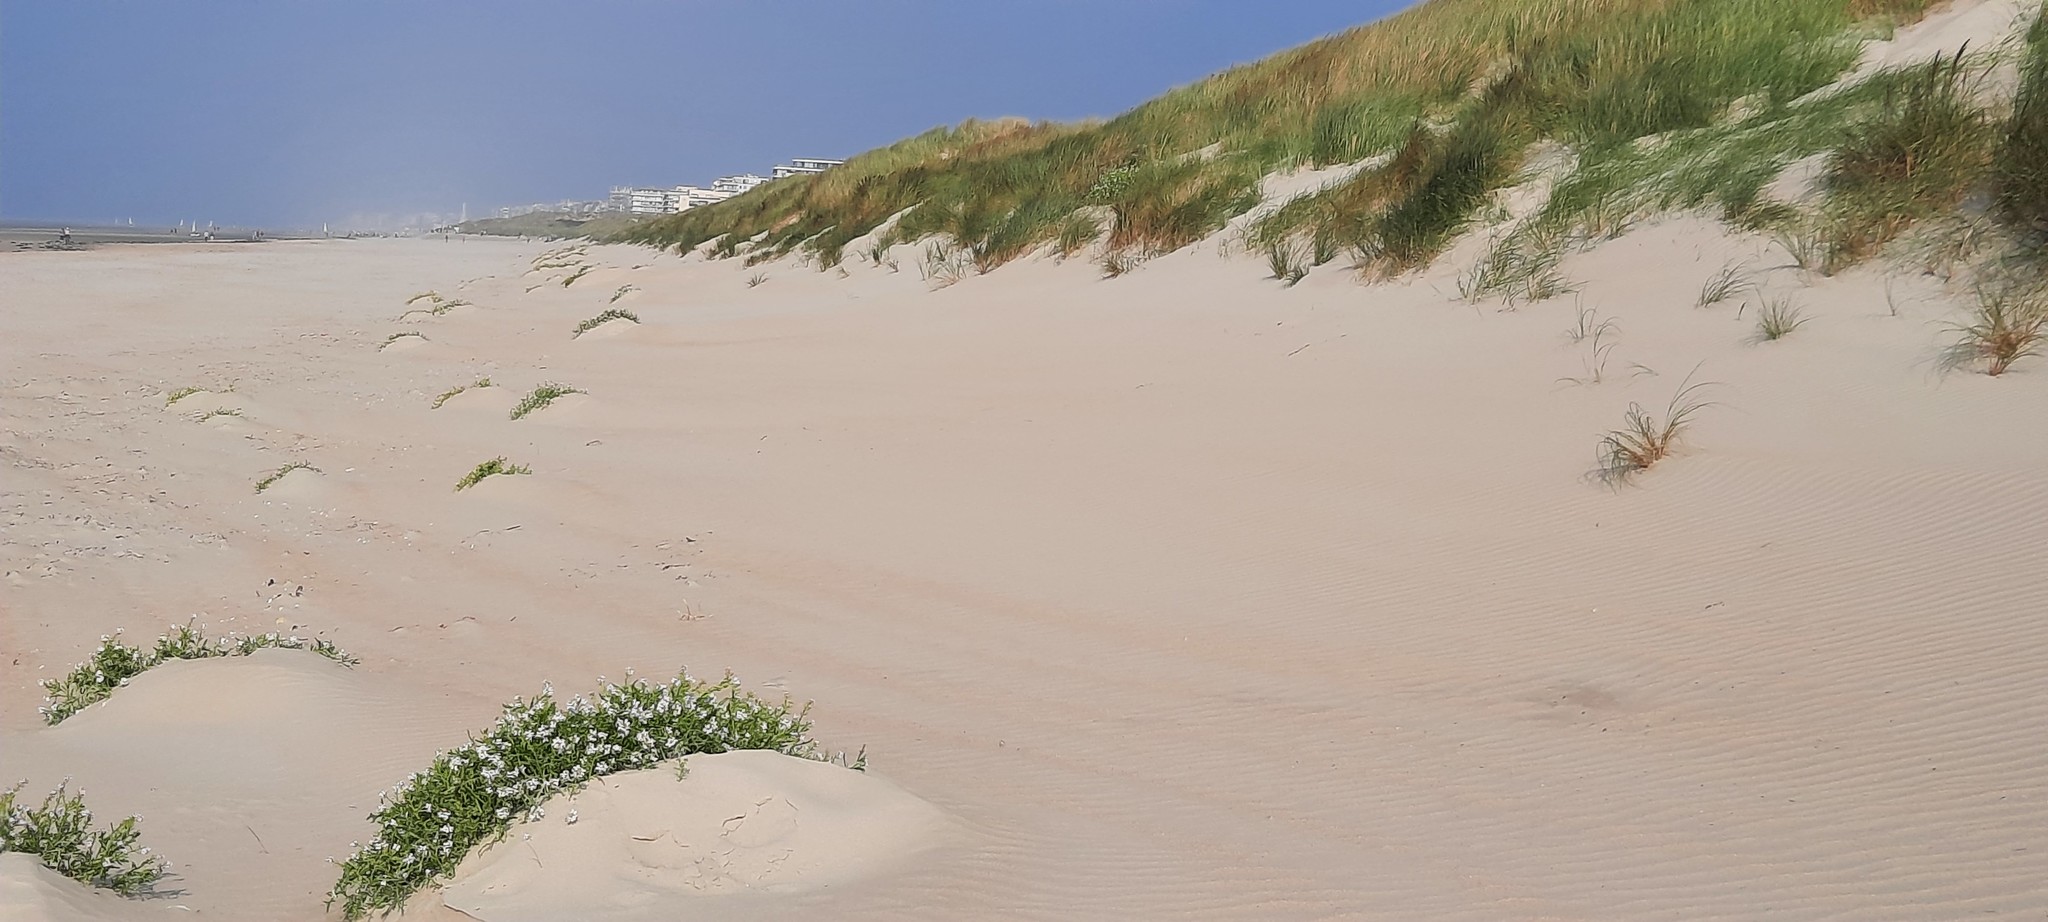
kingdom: Plantae
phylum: Tracheophyta
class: Magnoliopsida
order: Brassicales
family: Brassicaceae
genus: Cakile
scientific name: Cakile maritima
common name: Sea rocket
